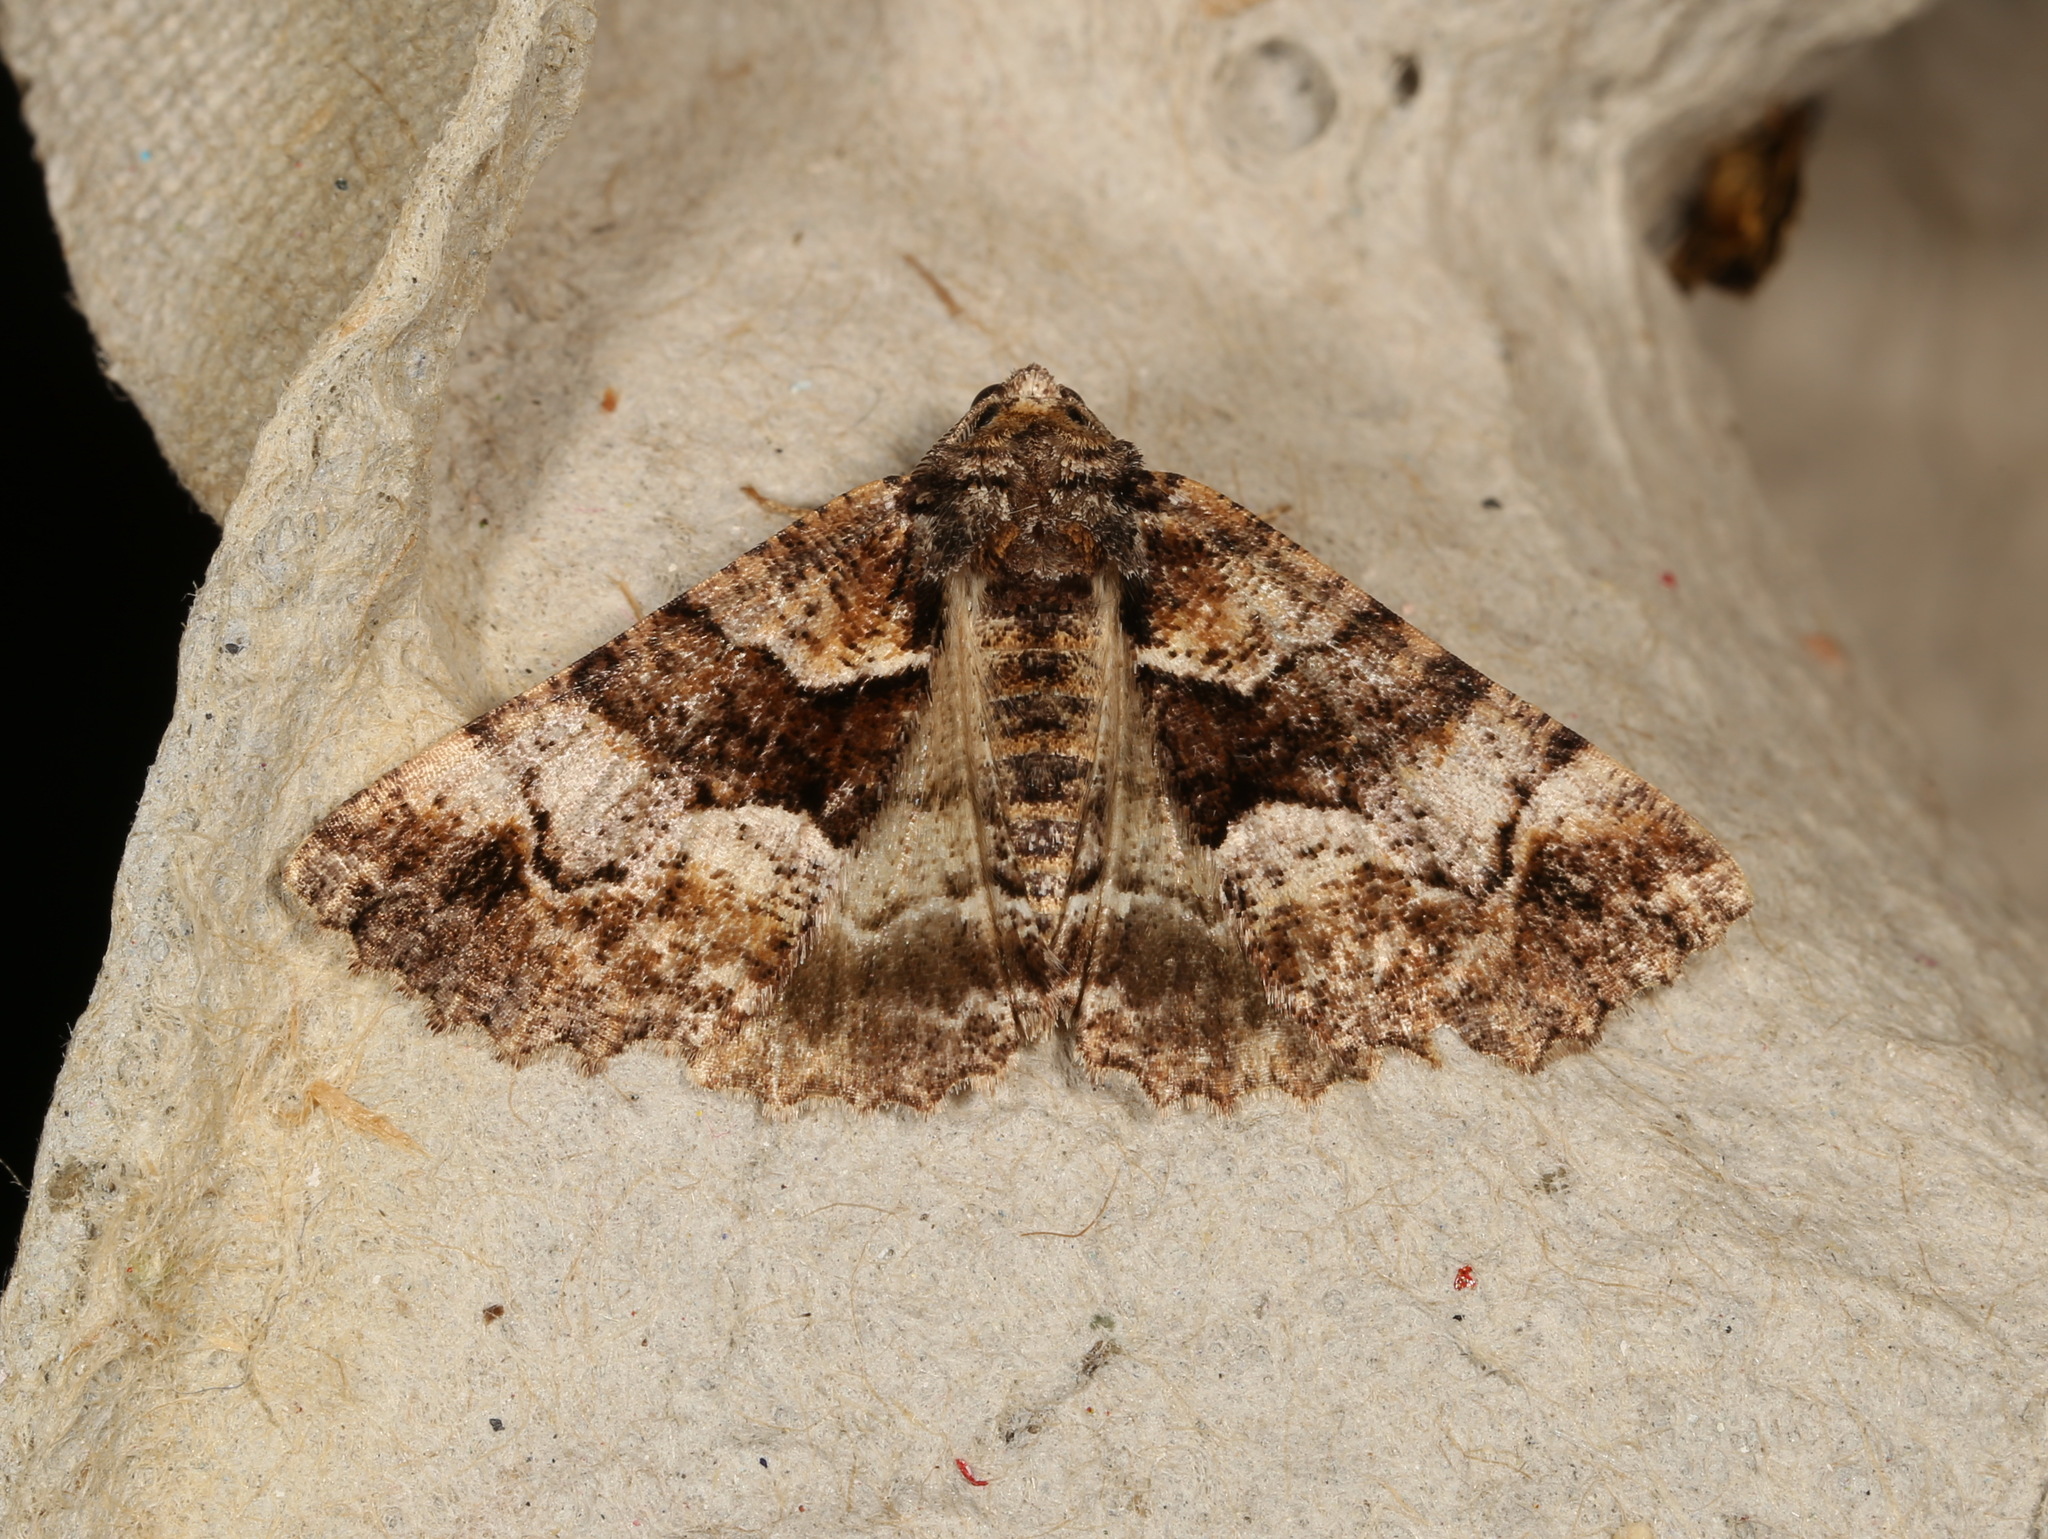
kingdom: Animalia
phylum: Arthropoda
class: Insecta
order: Lepidoptera
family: Geometridae
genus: Gastrina
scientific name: Gastrina cristaria
